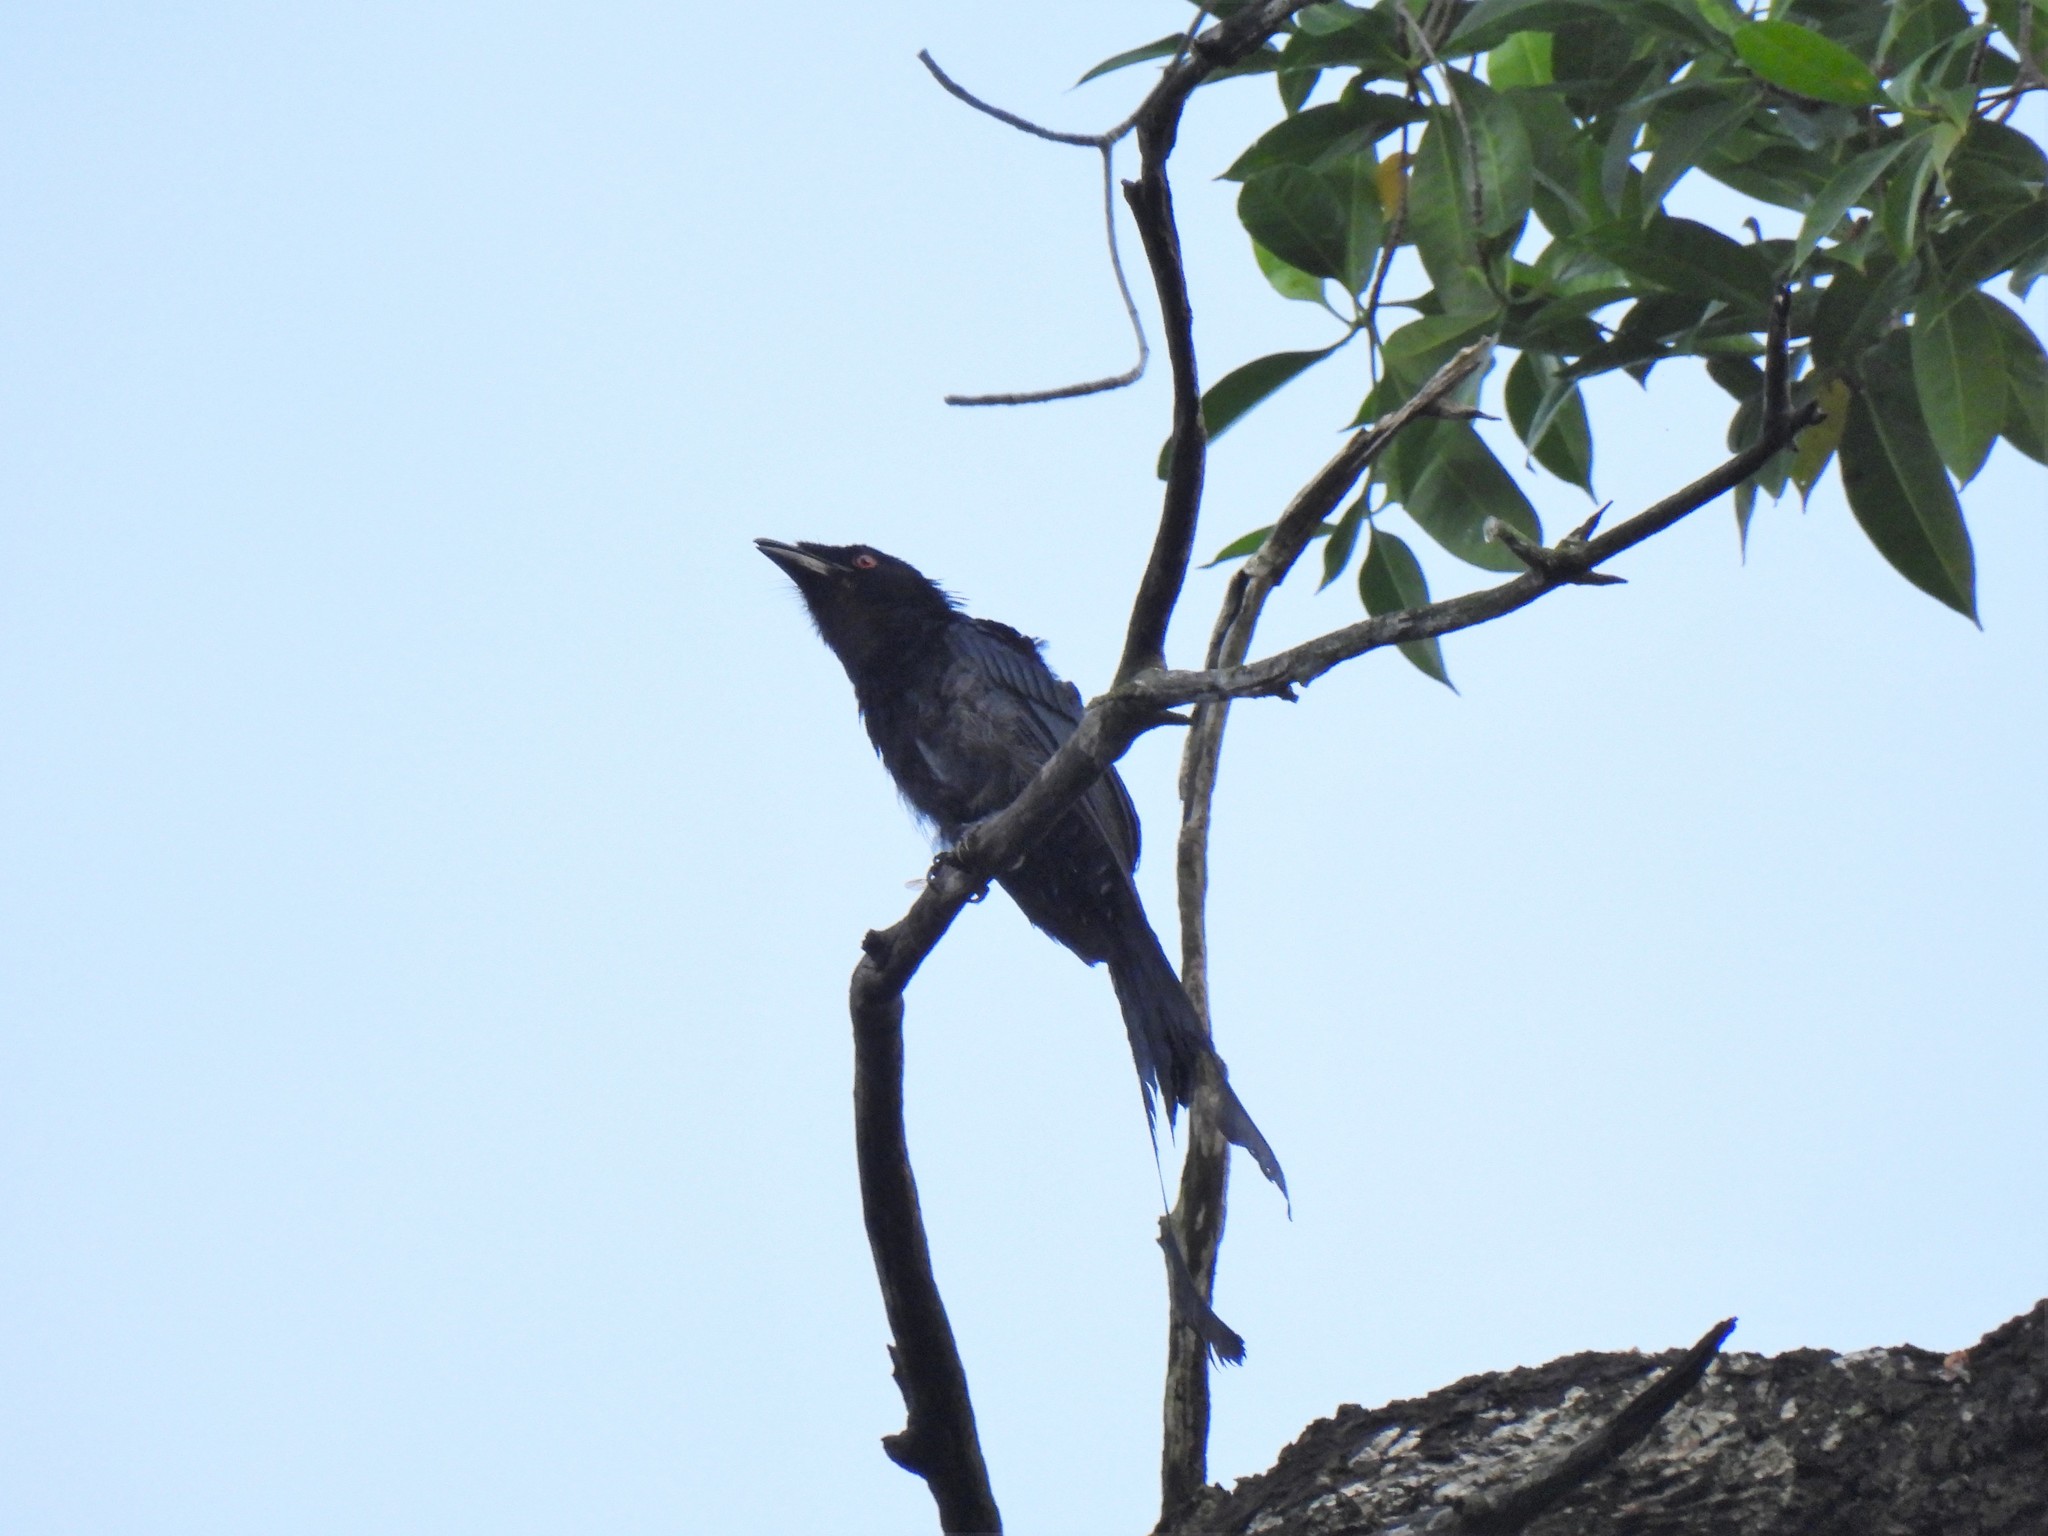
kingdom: Animalia
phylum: Chordata
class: Aves
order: Passeriformes
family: Dicruridae
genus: Dicrurus
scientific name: Dicrurus paradiseus
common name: Greater racket-tailed drongo
